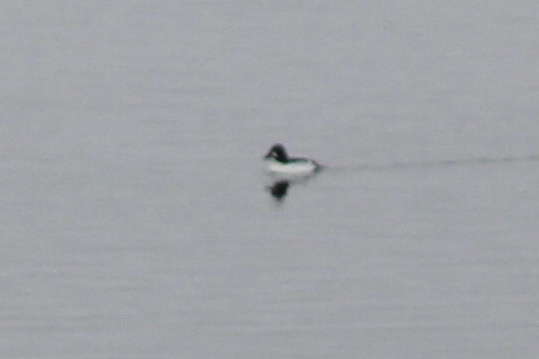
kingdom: Animalia
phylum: Chordata
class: Aves
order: Anseriformes
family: Anatidae
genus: Bucephala
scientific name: Bucephala clangula
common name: Common goldeneye
